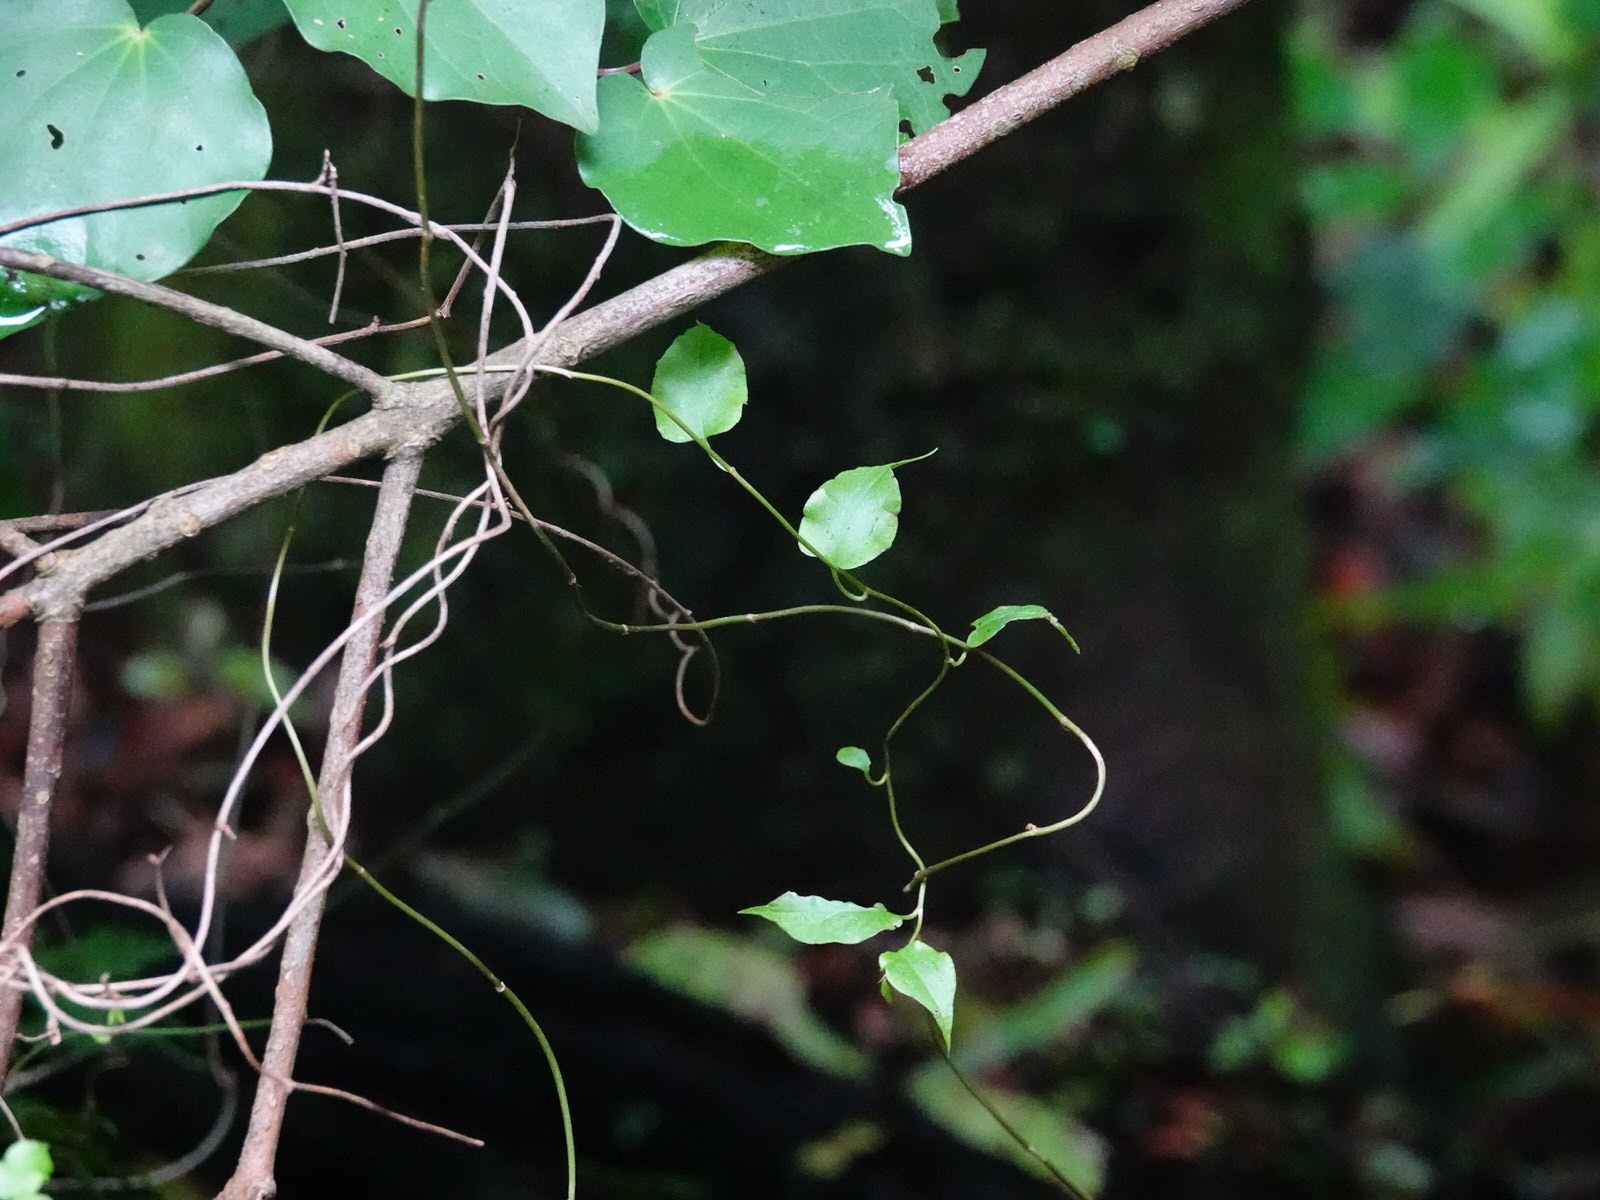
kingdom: Plantae
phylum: Tracheophyta
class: Magnoliopsida
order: Caryophyllales
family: Polygonaceae
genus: Muehlenbeckia
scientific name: Muehlenbeckia australis
